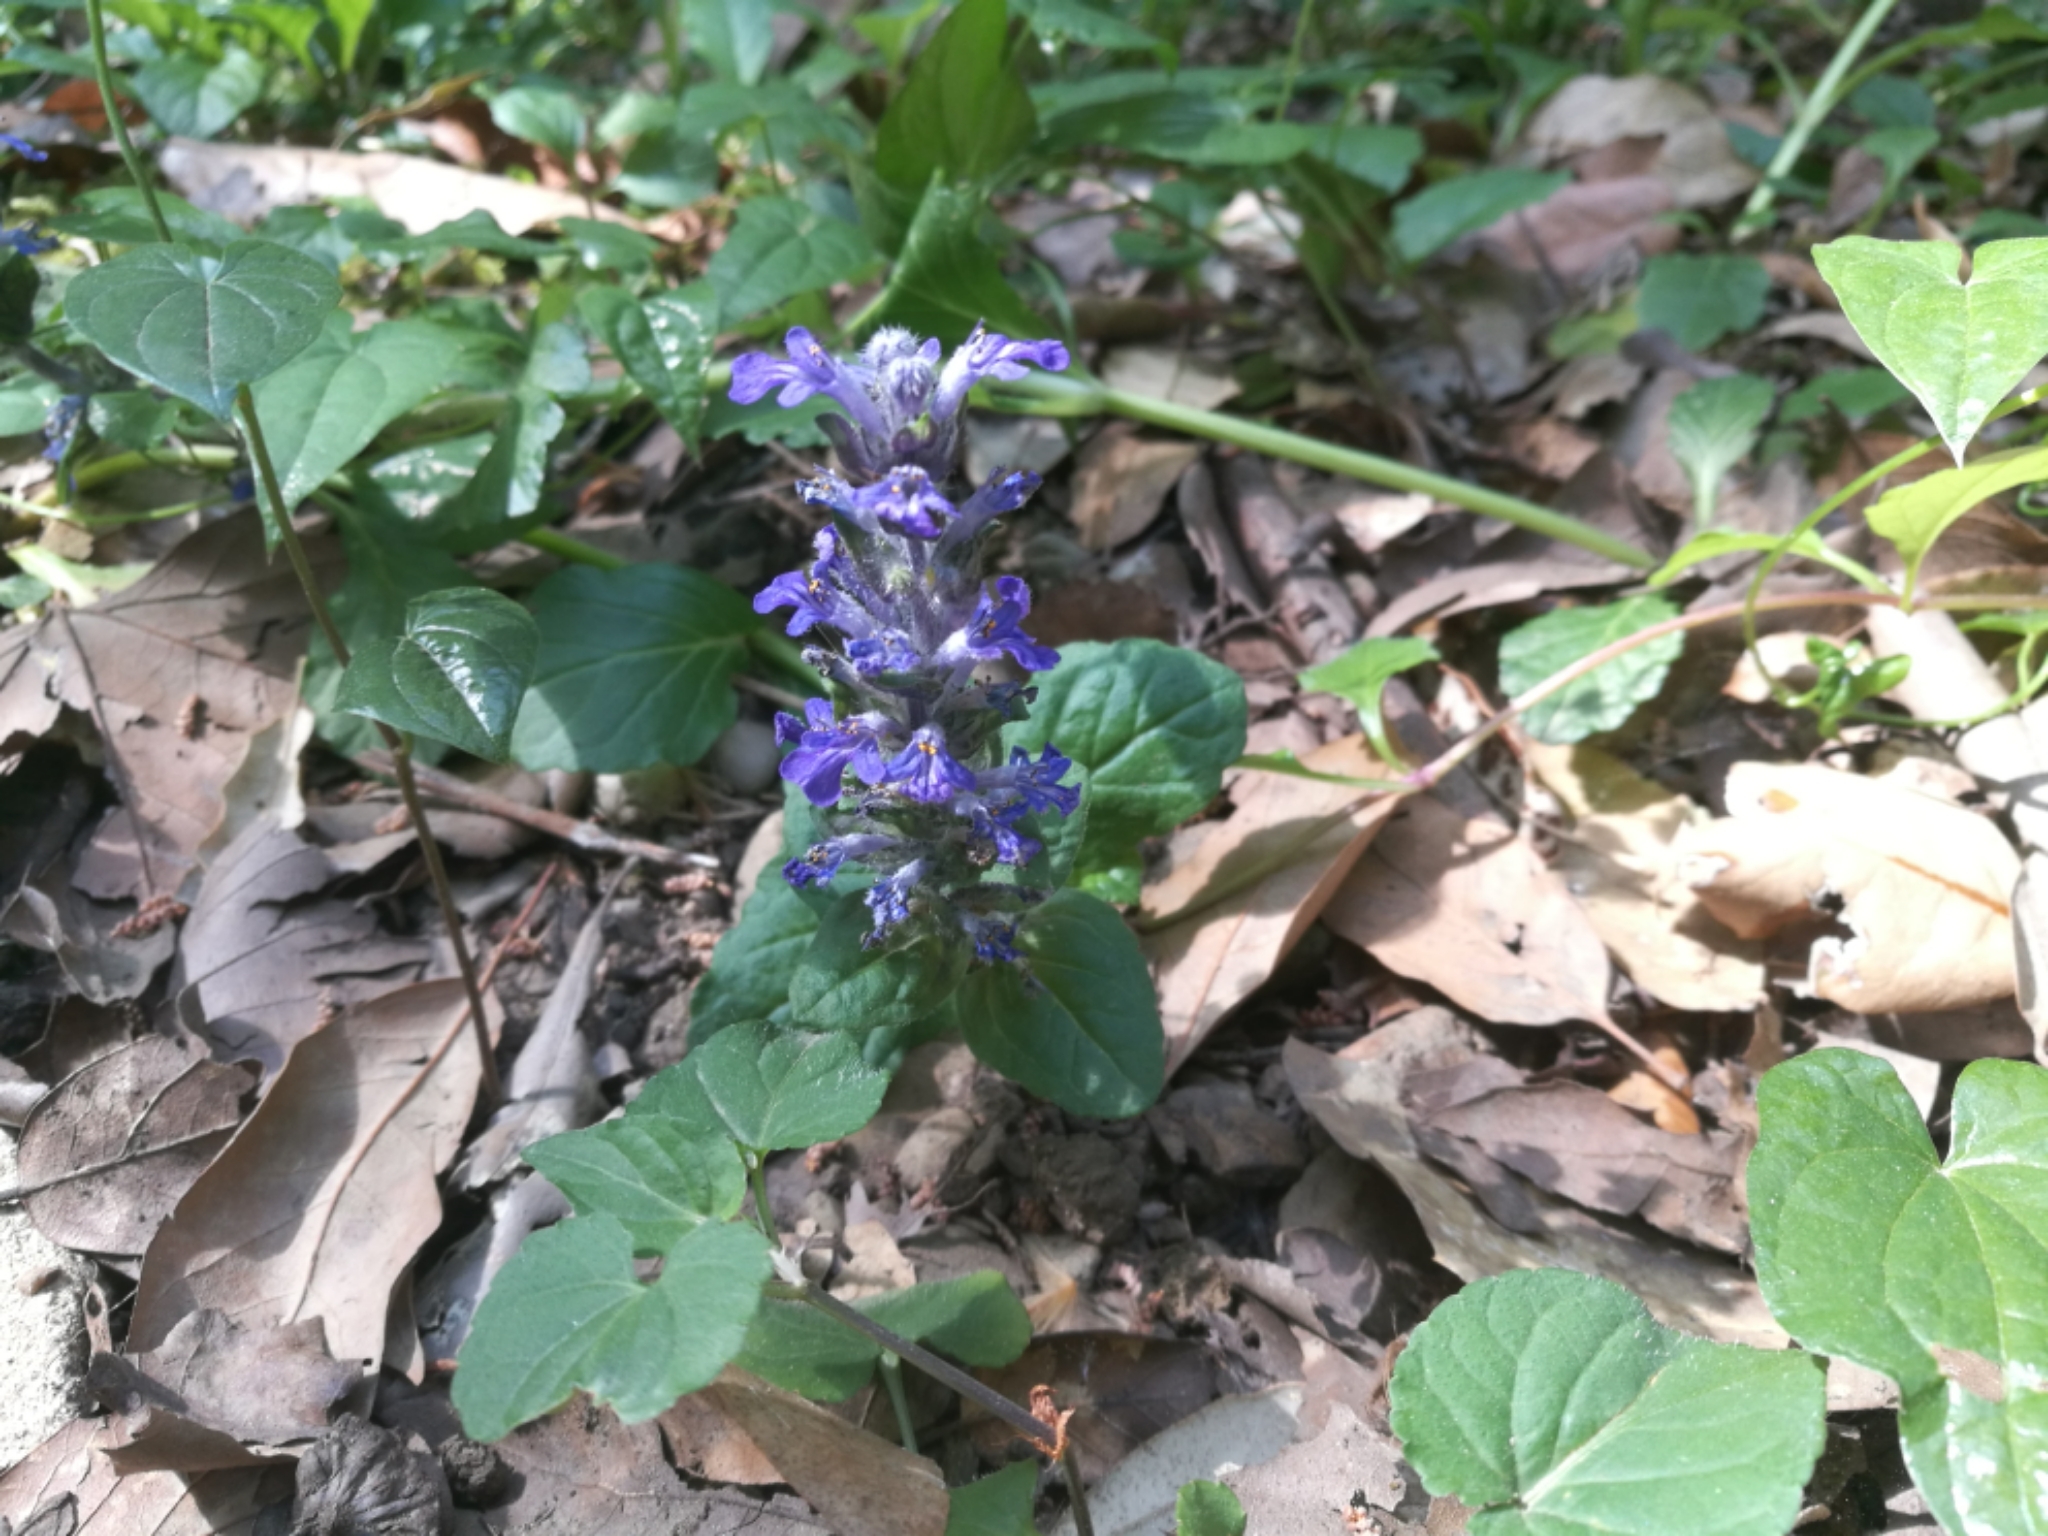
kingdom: Plantae
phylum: Tracheophyta
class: Magnoliopsida
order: Lamiales
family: Lamiaceae
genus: Ajuga
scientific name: Ajuga reptans
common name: Bugle
